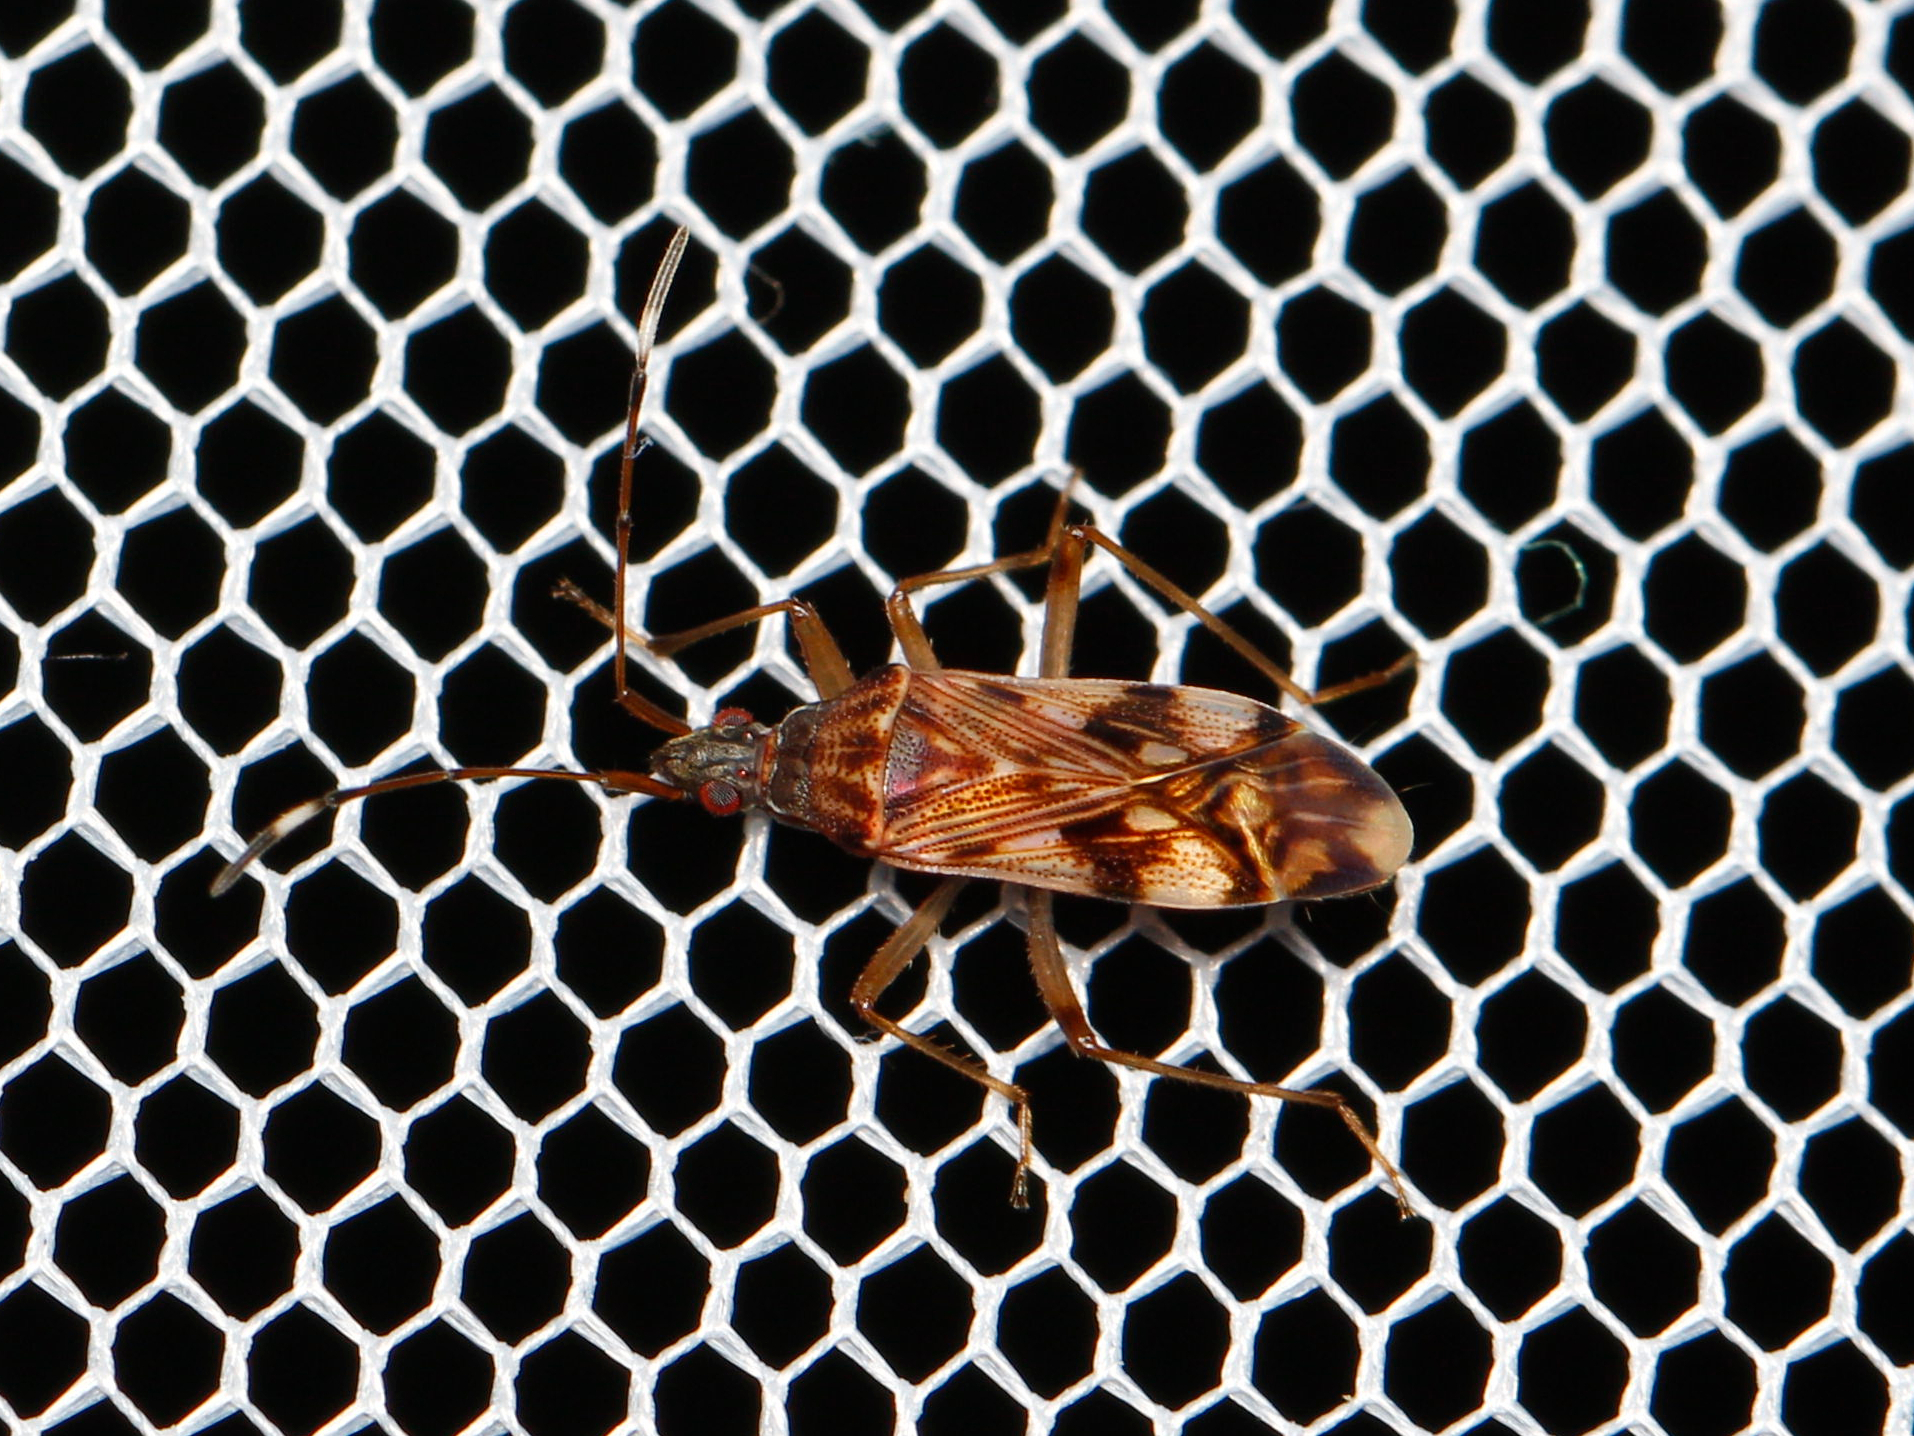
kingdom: Animalia
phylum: Arthropoda
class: Insecta
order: Hemiptera
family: Rhyparochromidae
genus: Ozophora
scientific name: Ozophora picturata
